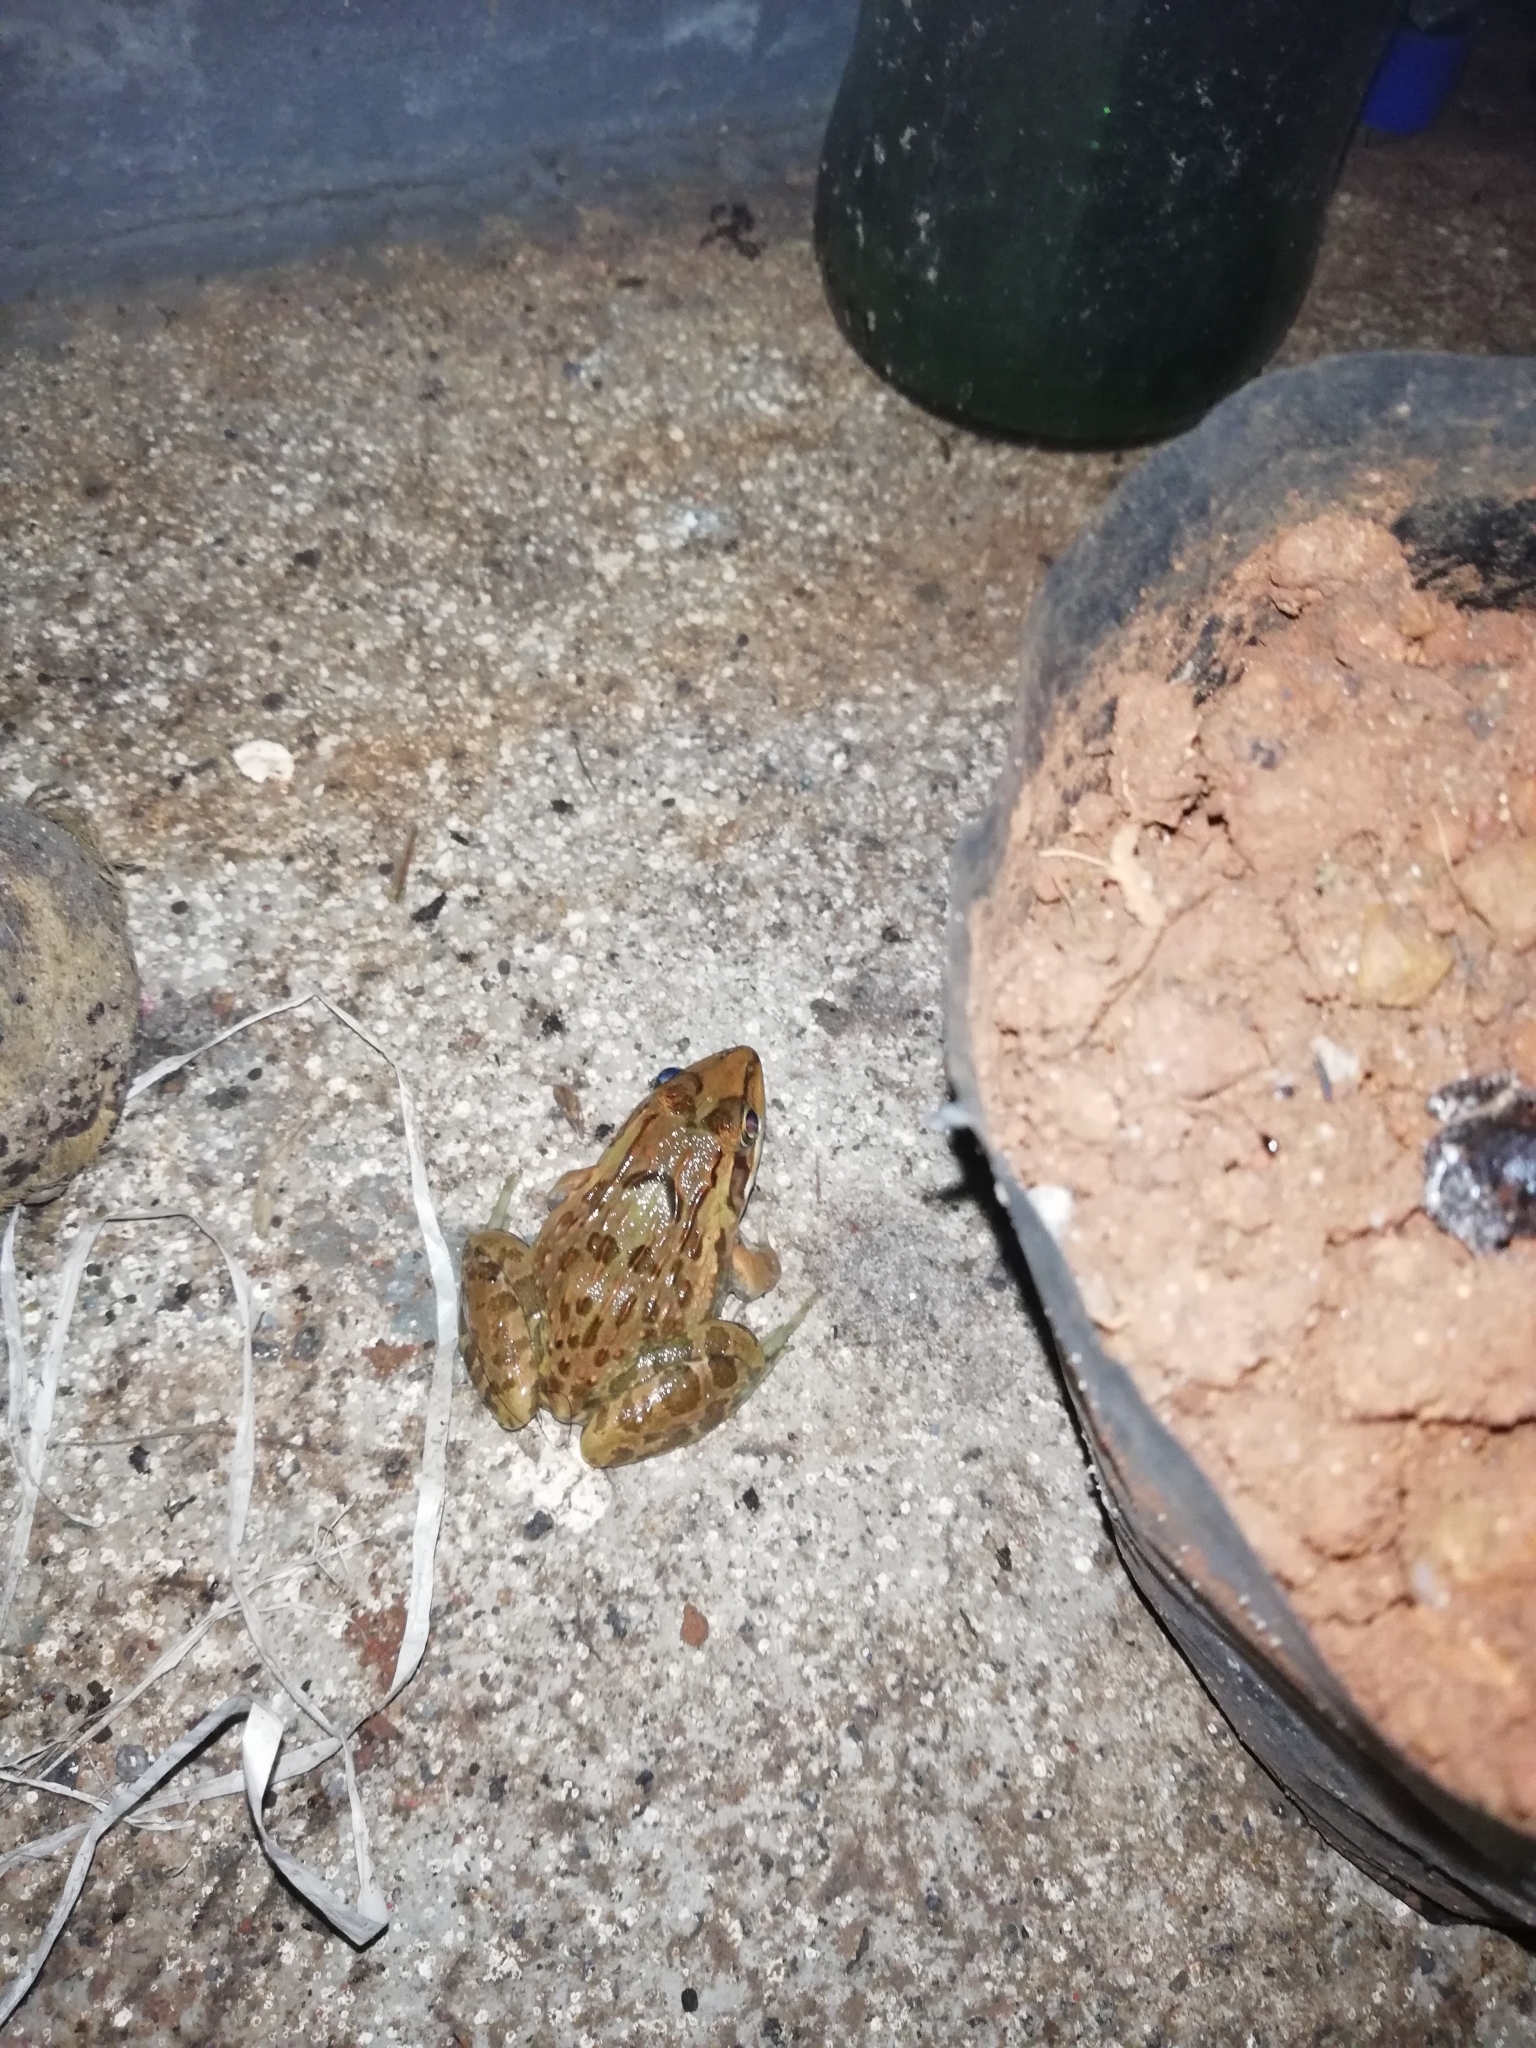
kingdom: Animalia
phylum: Chordata
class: Amphibia
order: Anura
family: Dicroglossidae
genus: Hoplobatrachus
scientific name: Hoplobatrachus tigerinus
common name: Indian bullfrog
